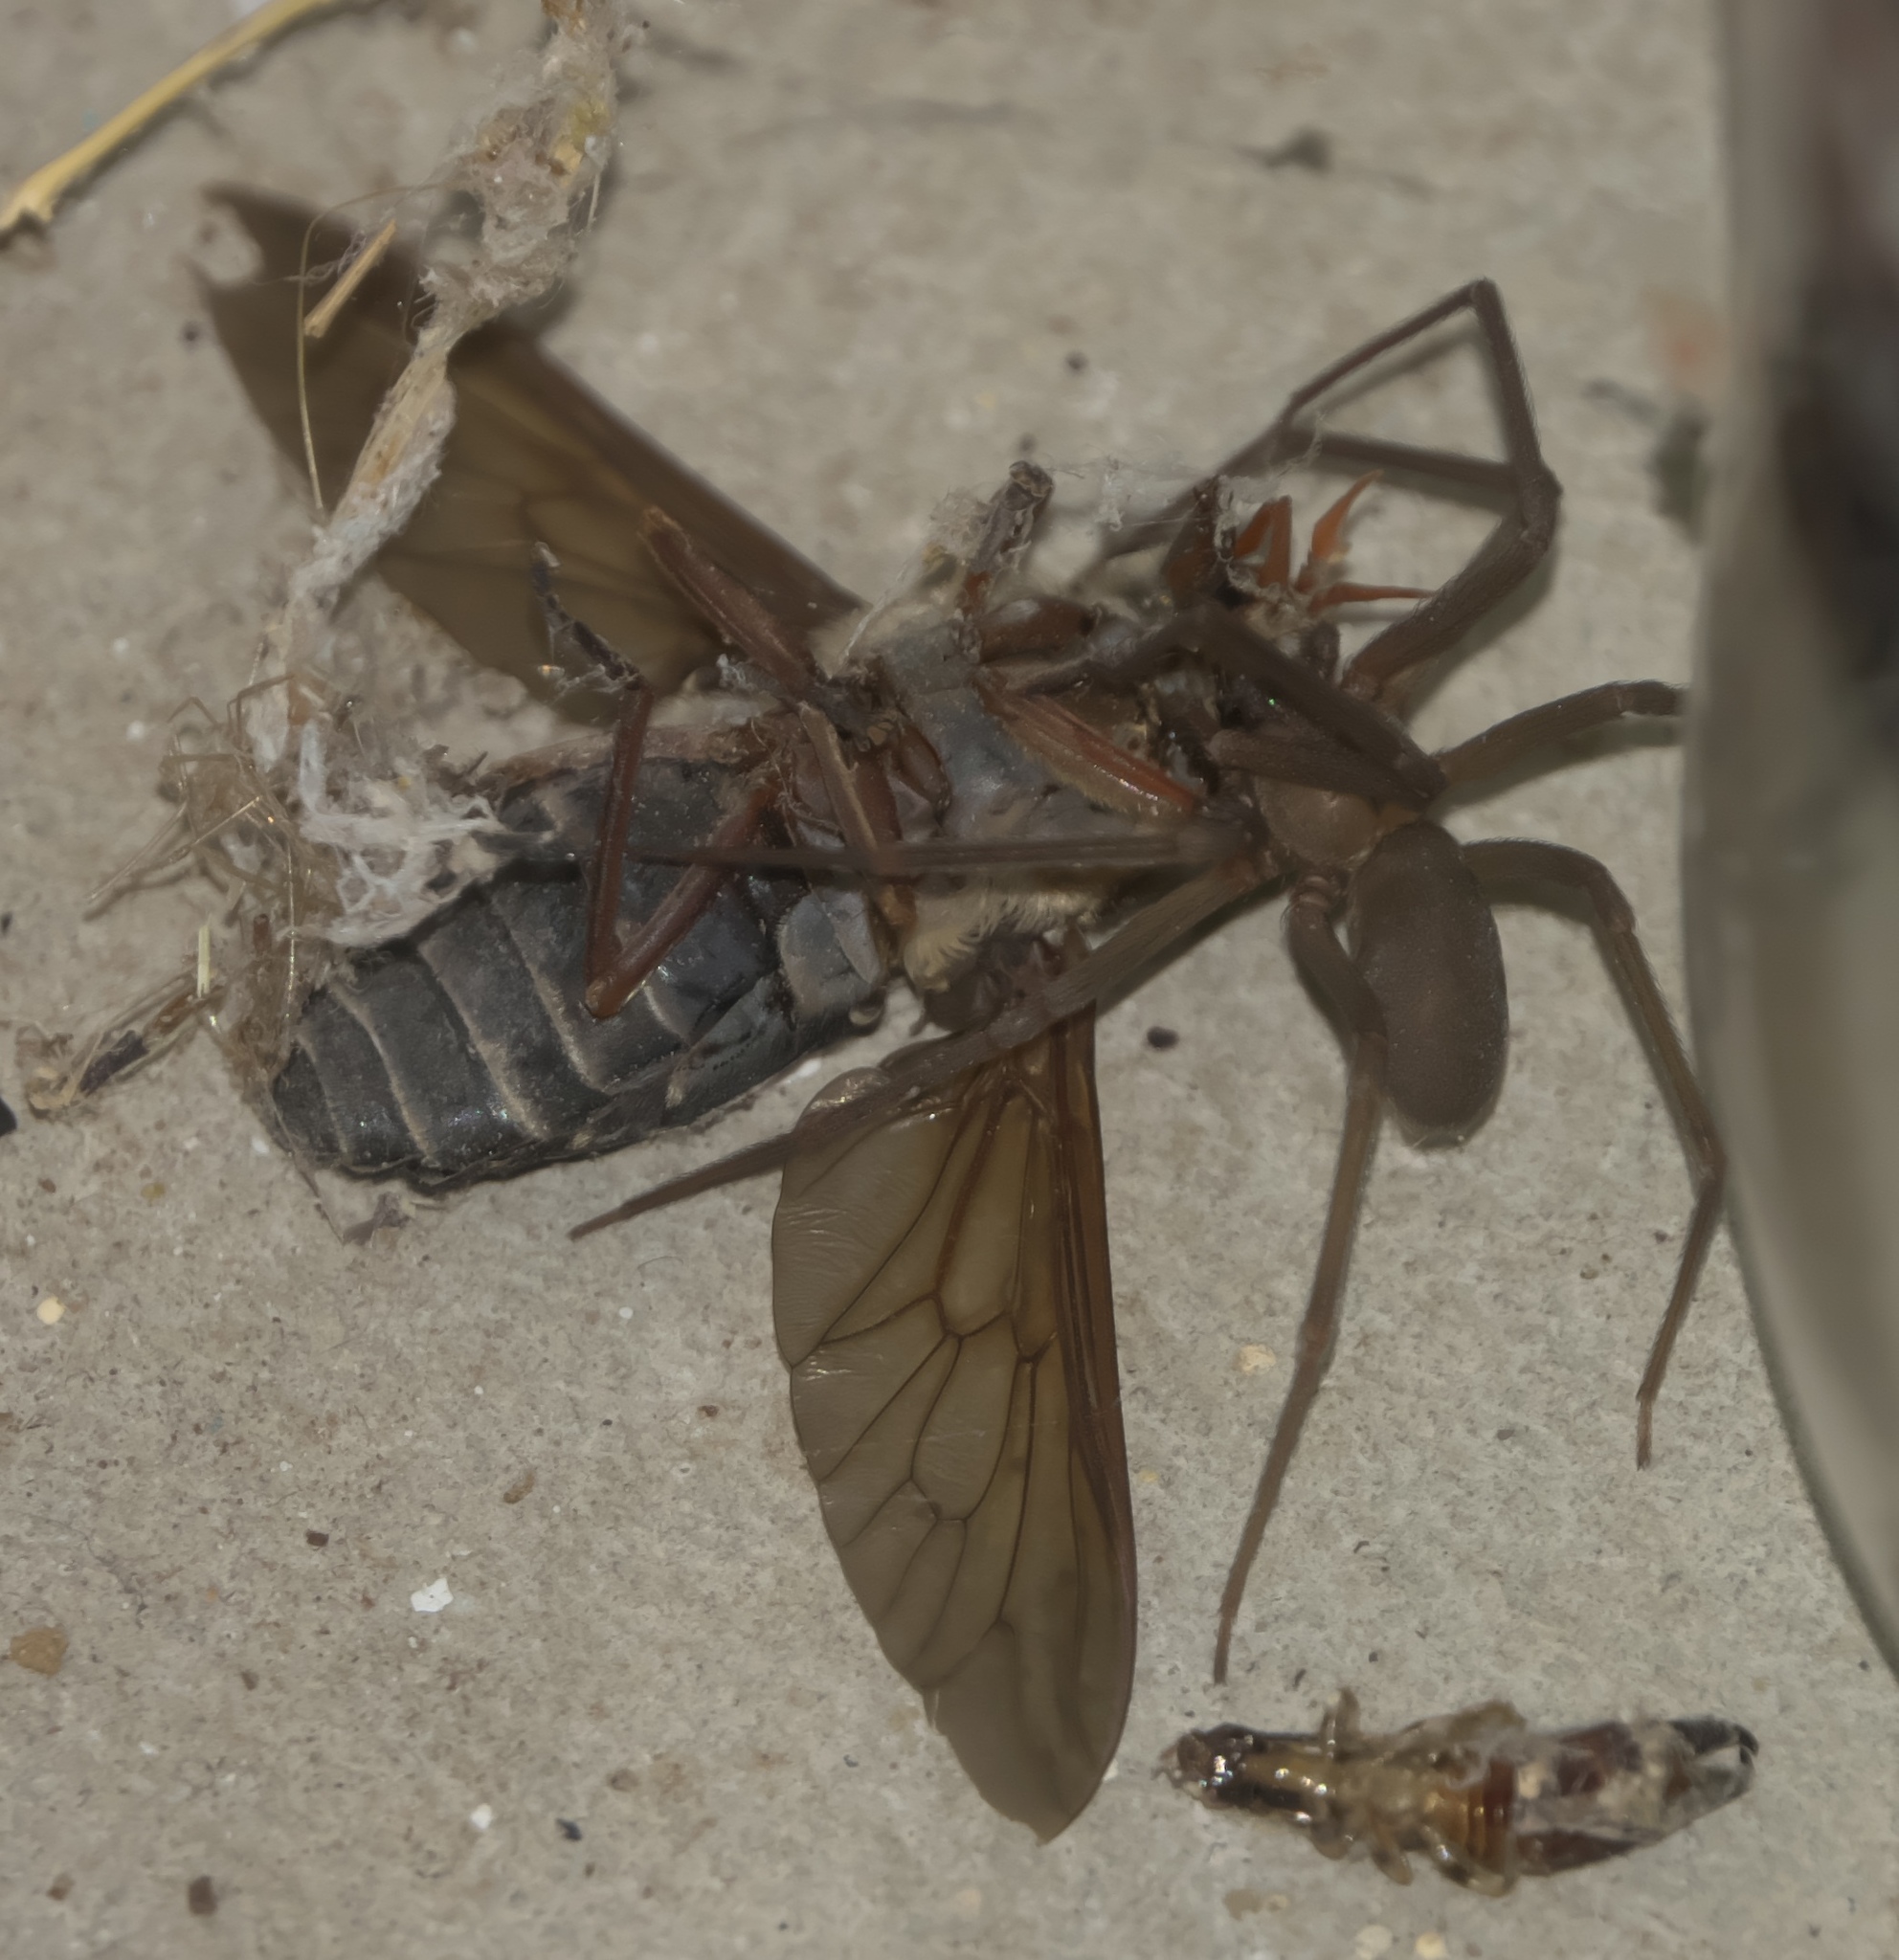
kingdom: Animalia
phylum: Arthropoda
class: Arachnida
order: Araneae
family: Sicariidae
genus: Loxosceles
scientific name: Loxosceles reclusa
